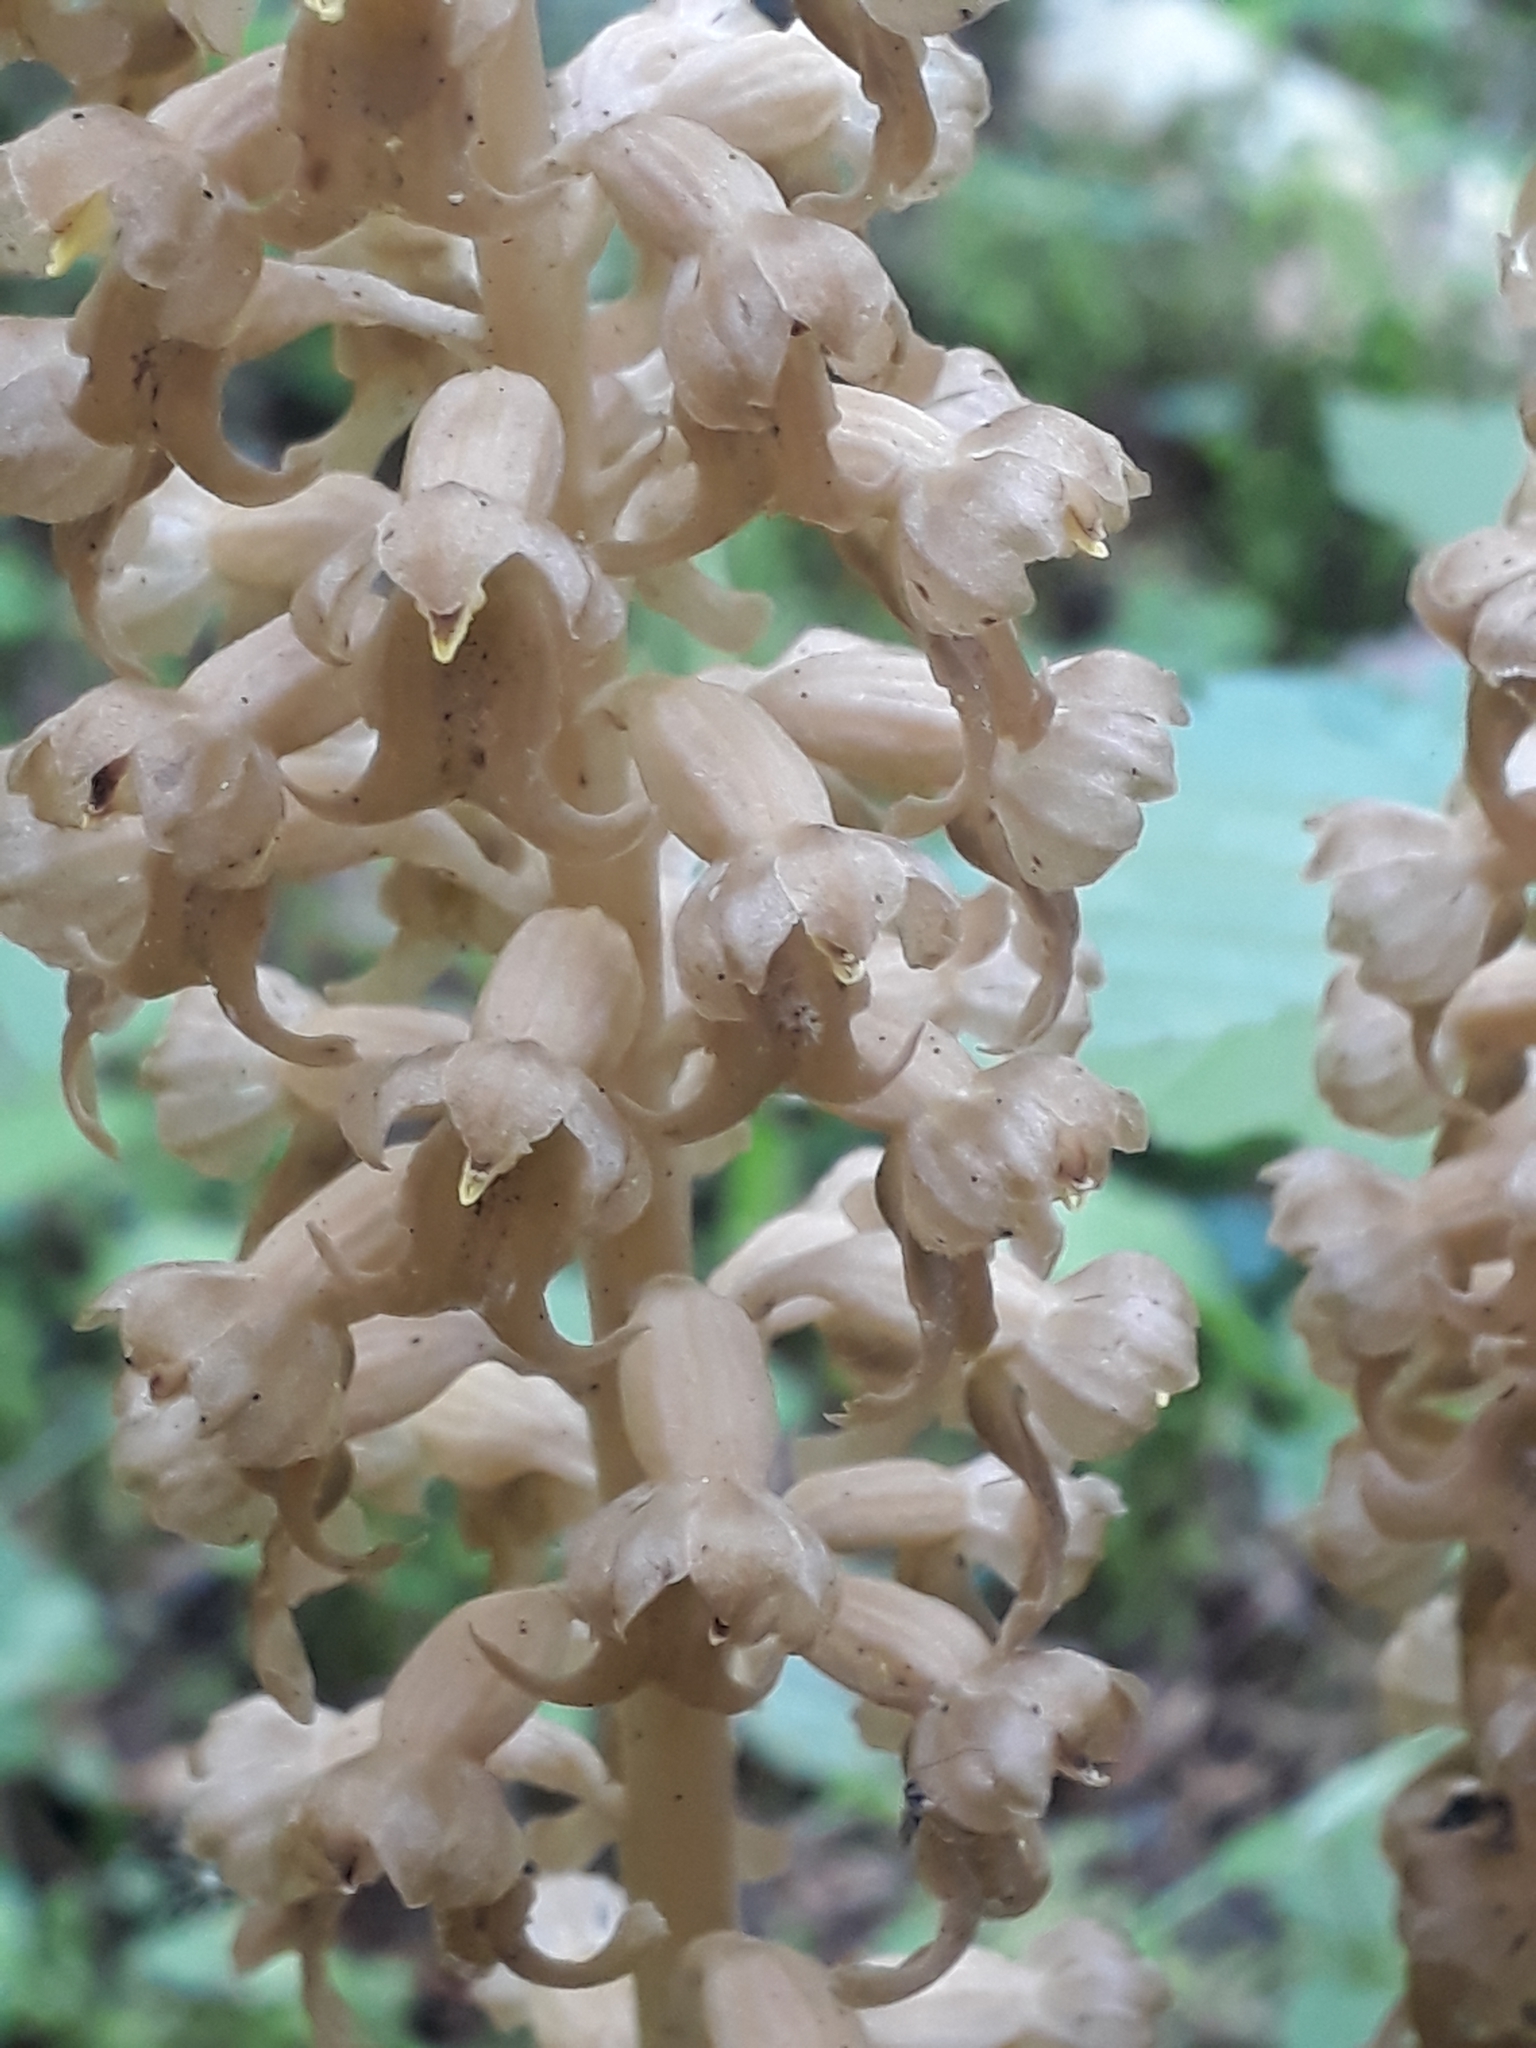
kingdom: Plantae
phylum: Tracheophyta
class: Liliopsida
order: Asparagales
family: Orchidaceae
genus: Neottia
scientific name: Neottia nidus-avis
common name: Bird's-nest orchid
